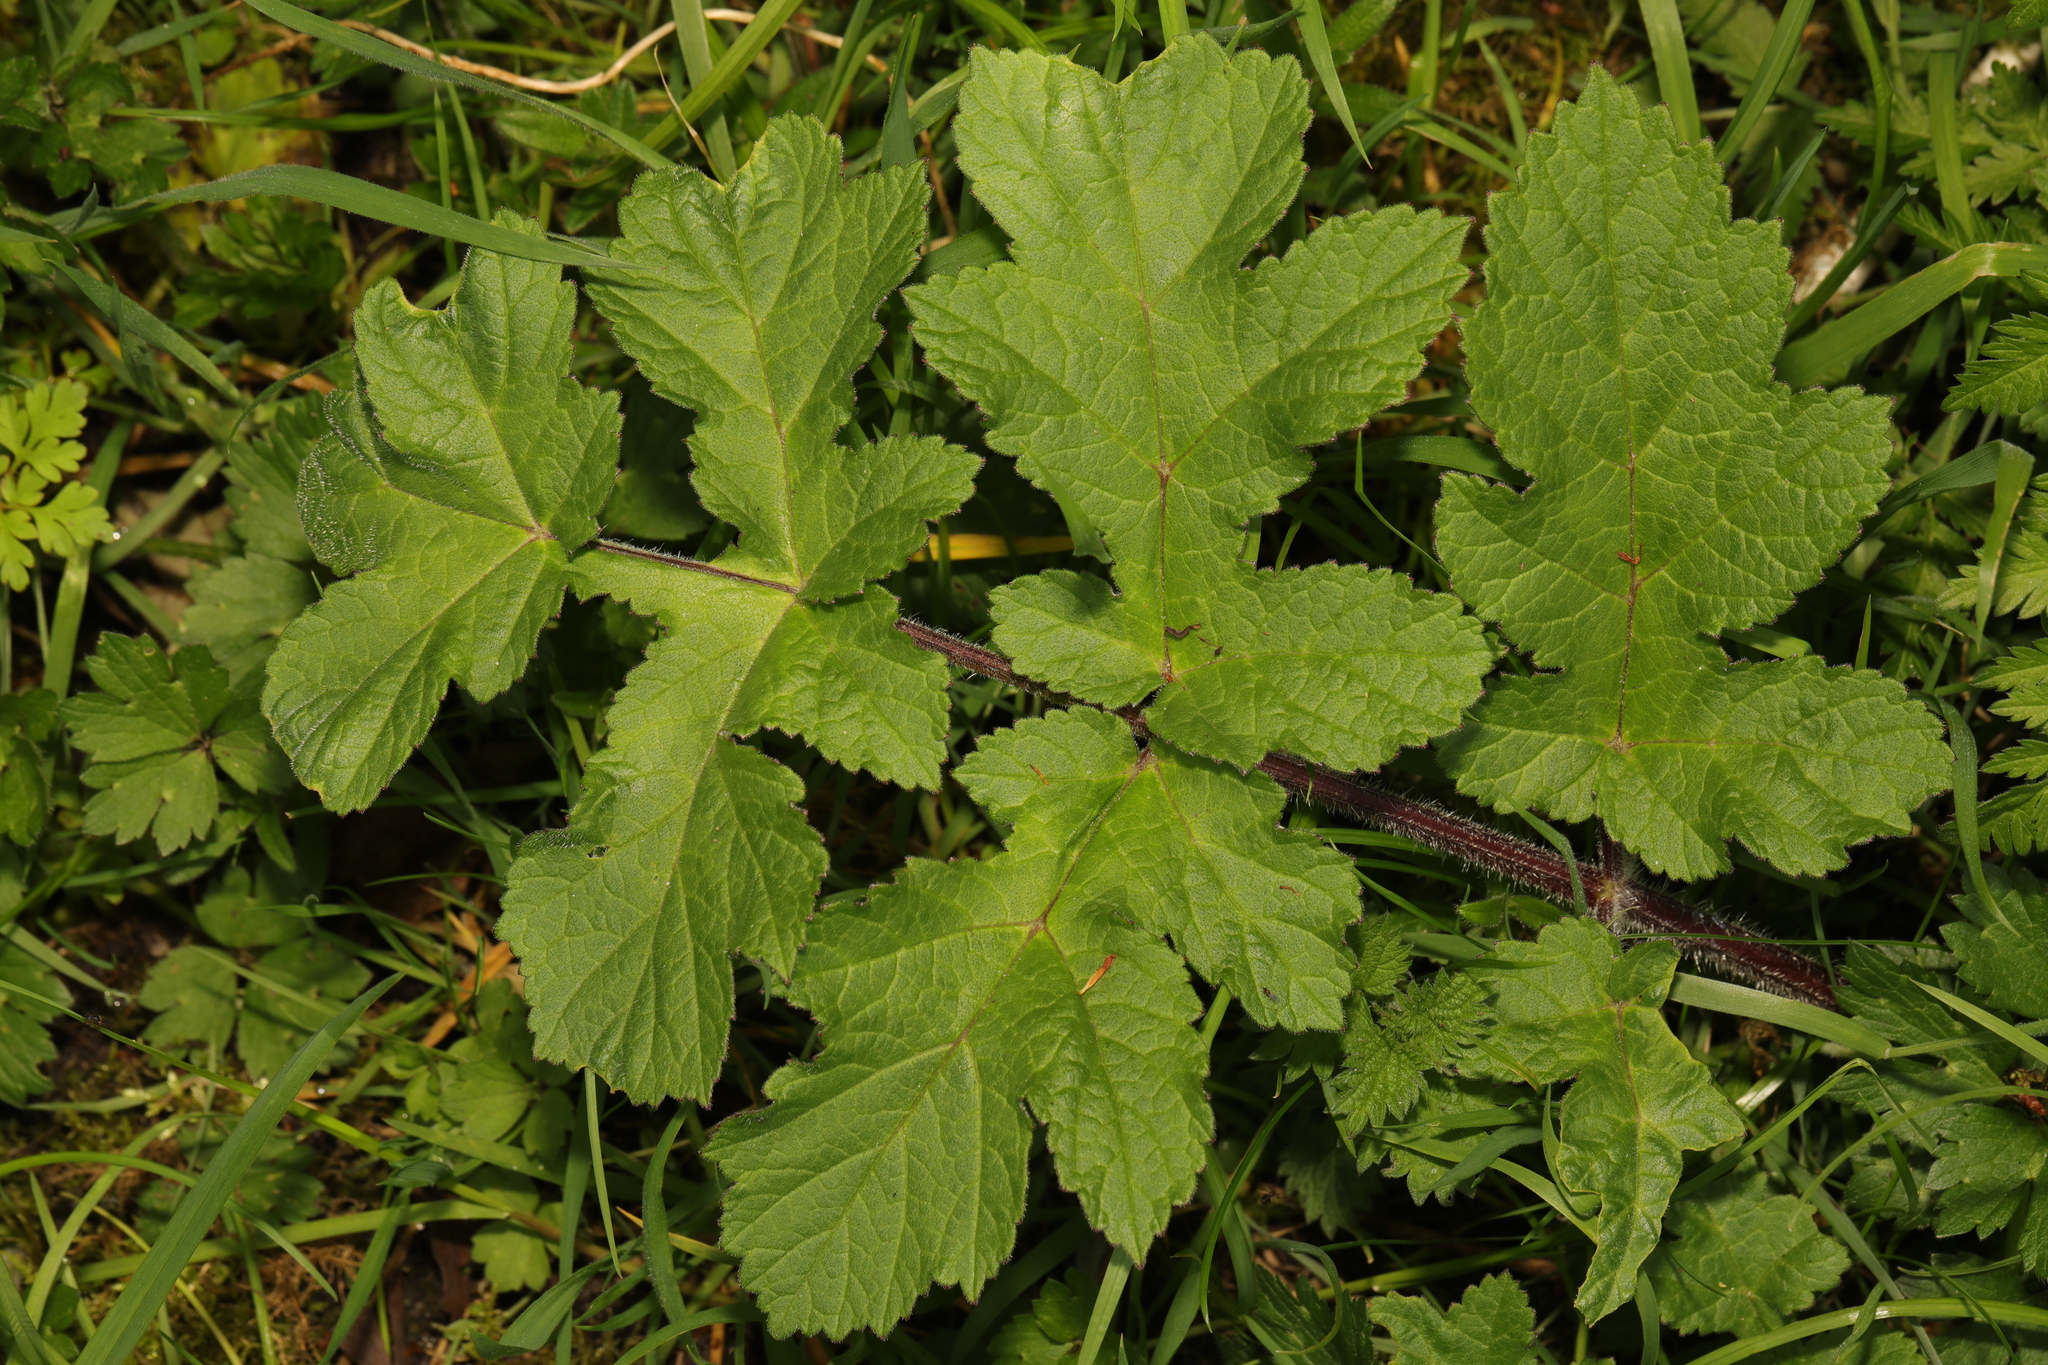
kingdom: Plantae
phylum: Tracheophyta
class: Magnoliopsida
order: Apiales
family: Apiaceae
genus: Heracleum
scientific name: Heracleum sphondylium
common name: Hogweed
